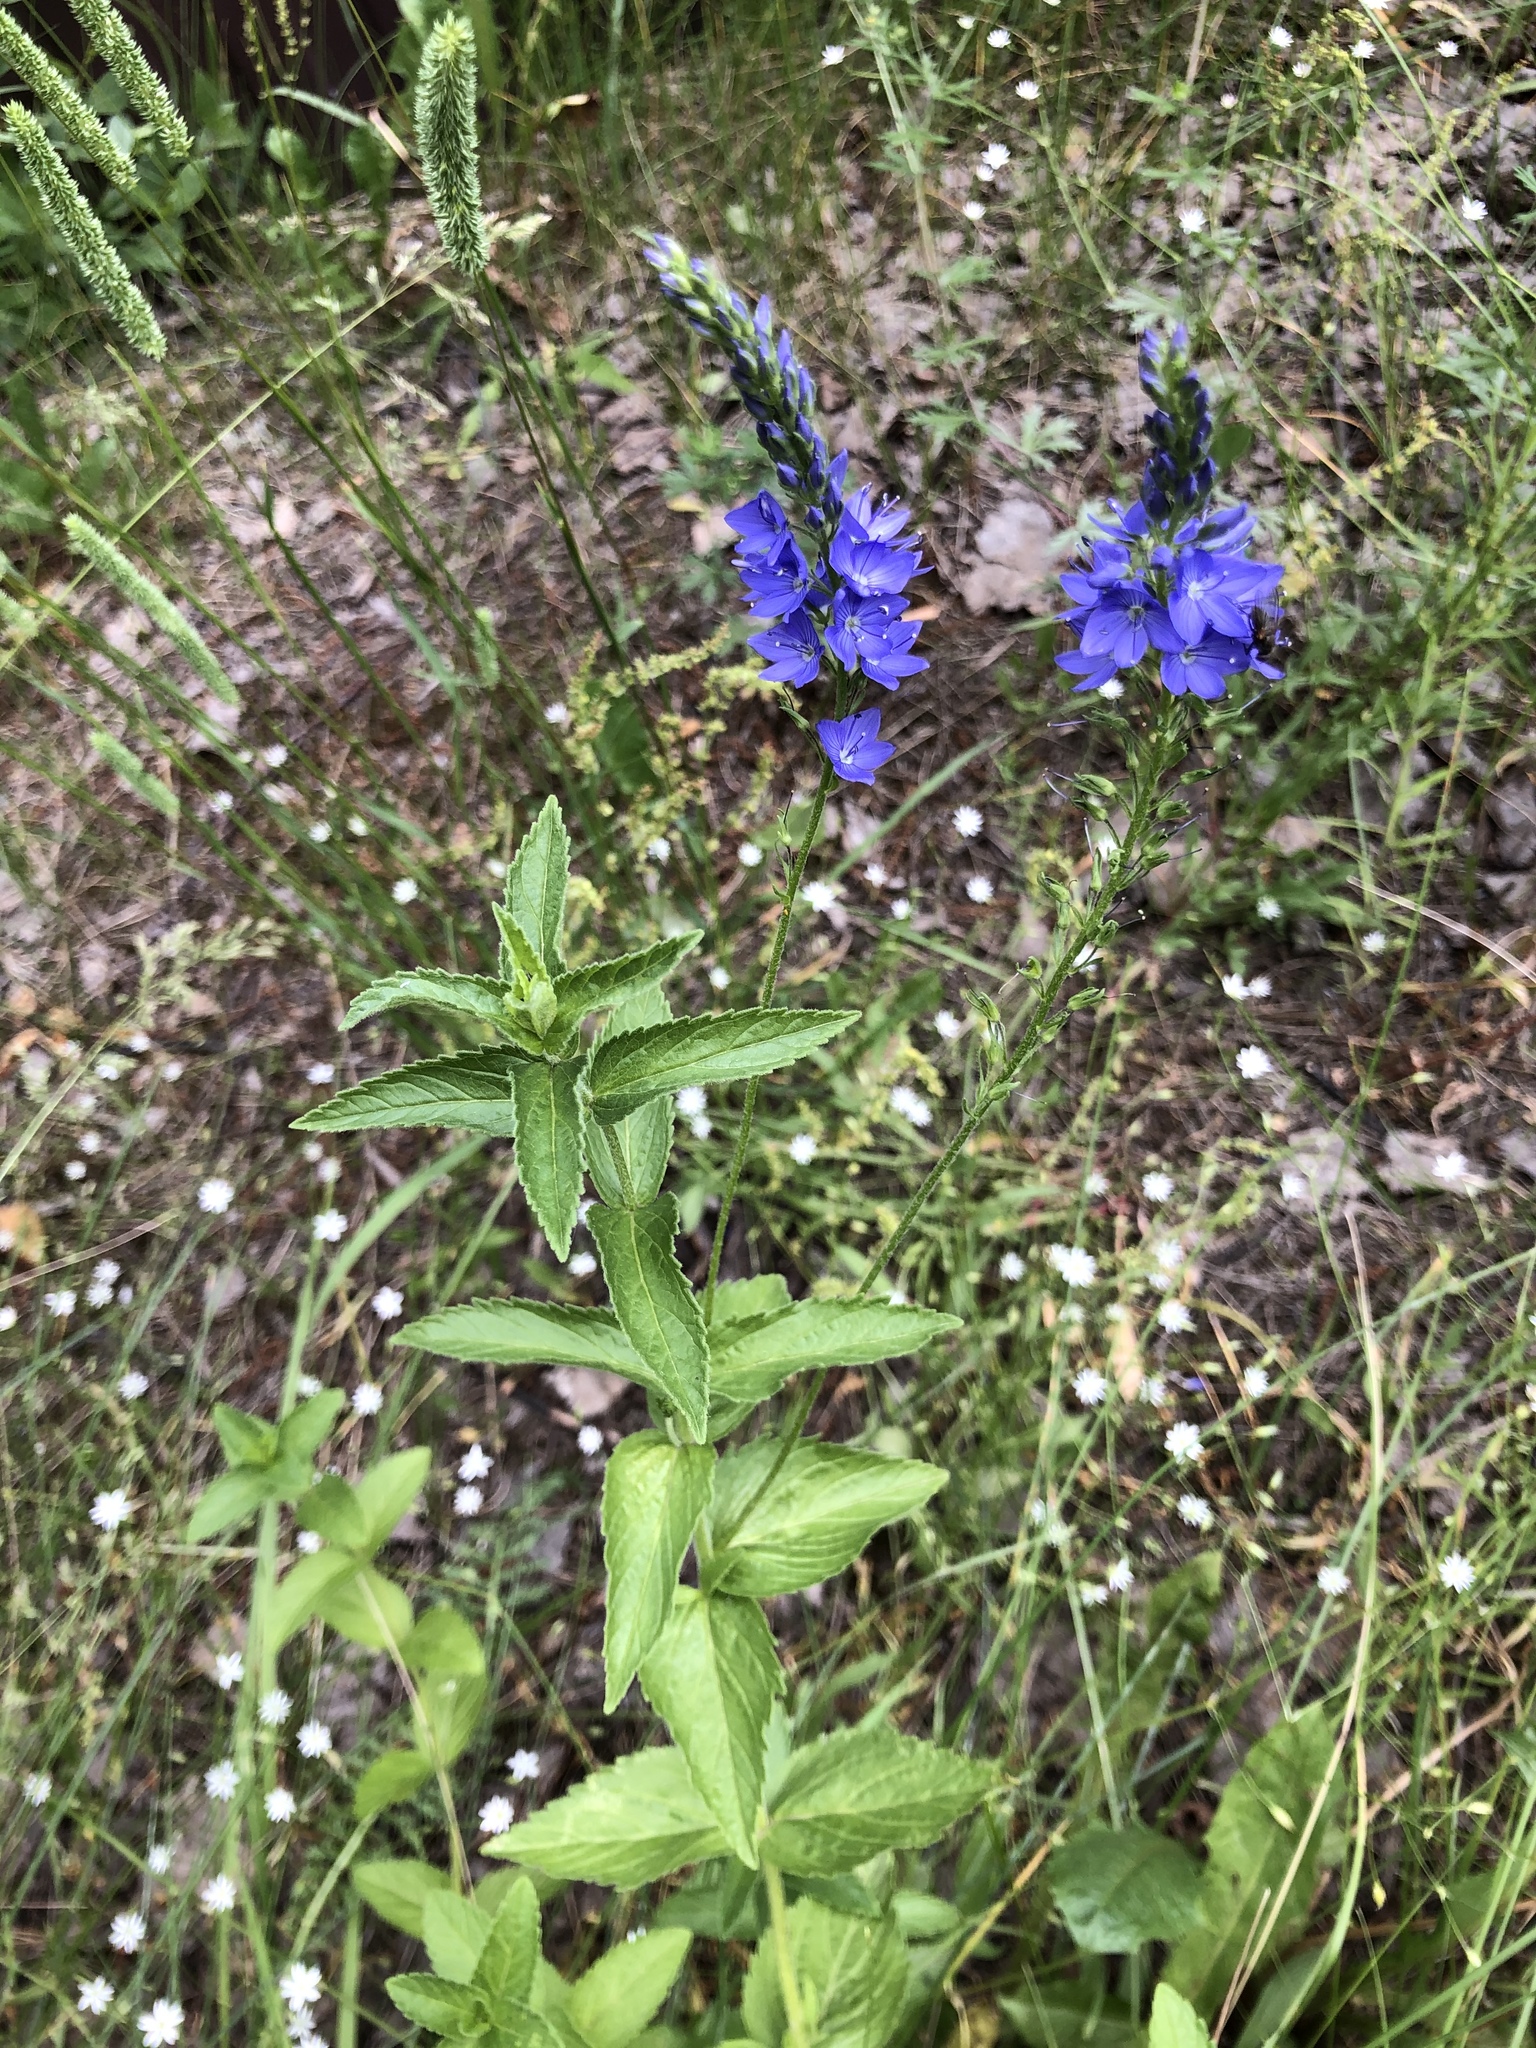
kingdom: Plantae
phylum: Tracheophyta
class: Magnoliopsida
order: Lamiales
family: Plantaginaceae
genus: Veronica
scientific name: Veronica teucrium
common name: Large speedwell
